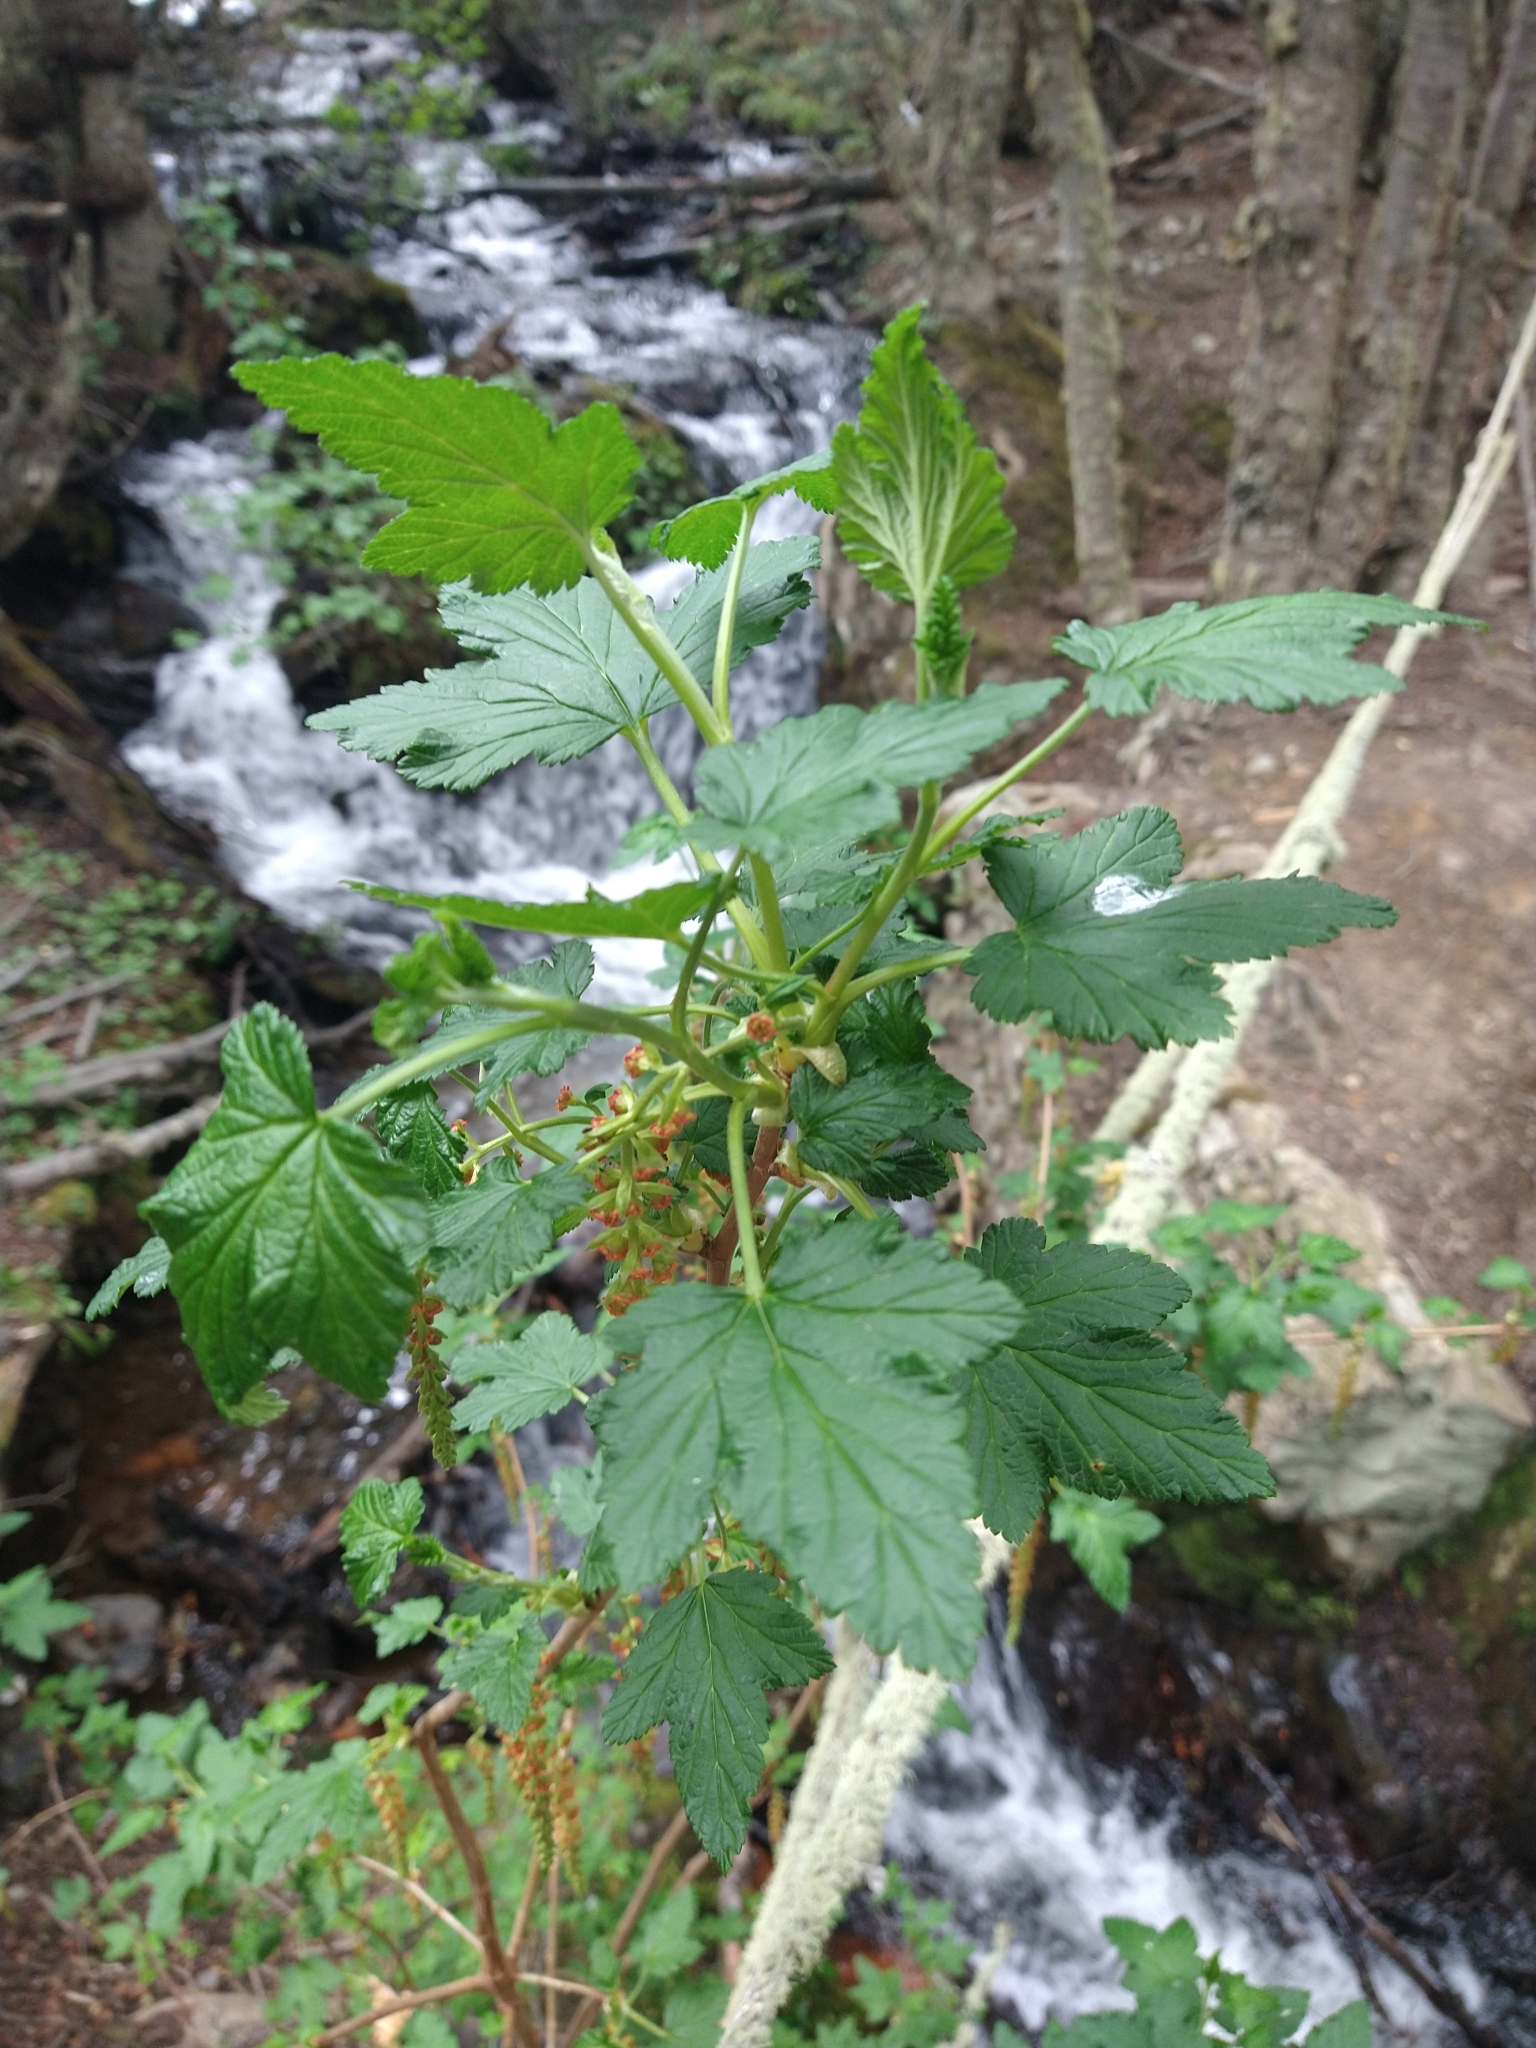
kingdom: Plantae
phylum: Tracheophyta
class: Magnoliopsida
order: Saxifragales
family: Grossulariaceae
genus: Ribes
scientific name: Ribes magellanicum
